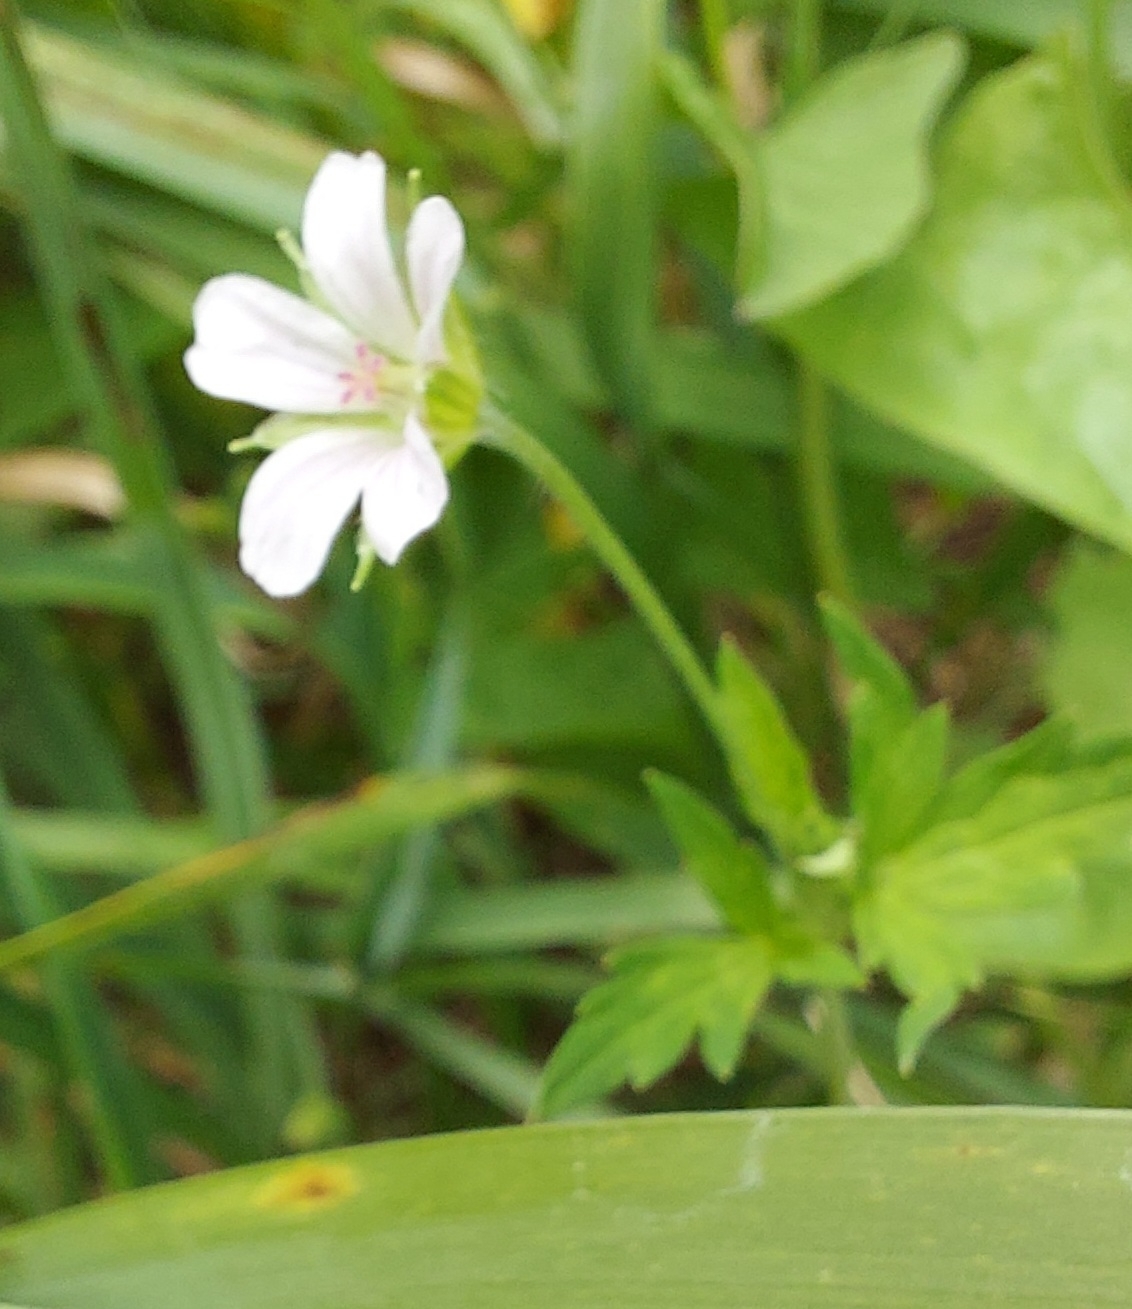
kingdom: Plantae
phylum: Tracheophyta
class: Magnoliopsida
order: Geraniales
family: Geraniaceae
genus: Geranium
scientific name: Geranium sibiricum
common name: Siberian crane's-bill
